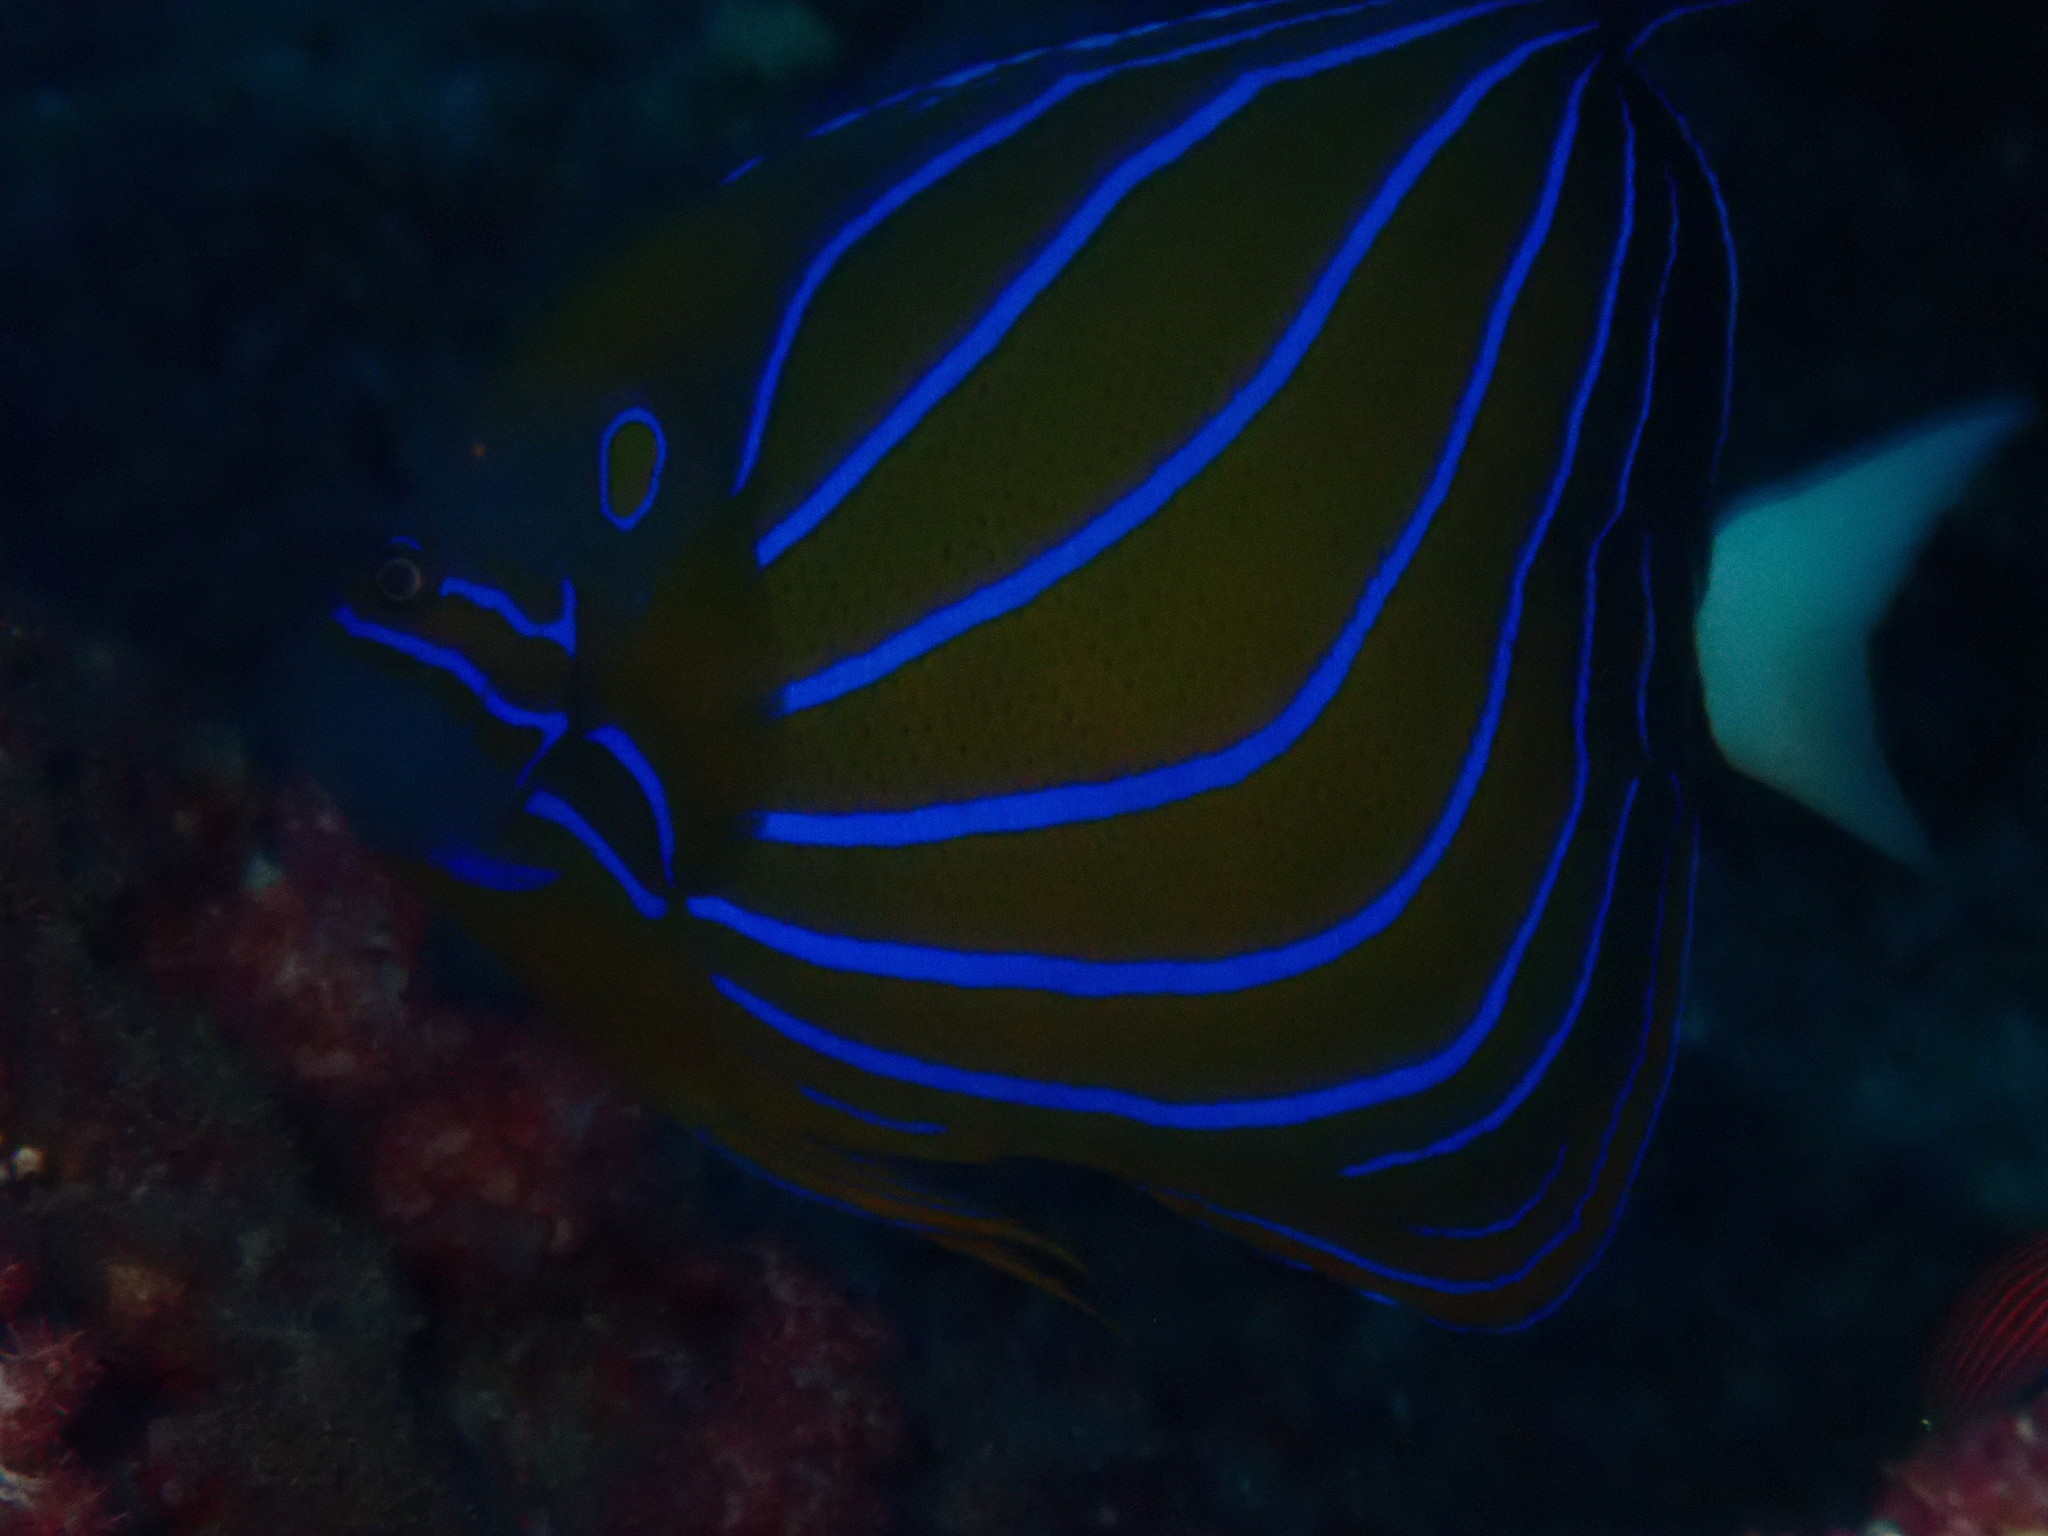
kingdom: Animalia
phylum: Chordata
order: Perciformes
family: Pomacanthidae
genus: Pomacanthus
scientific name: Pomacanthus annularis
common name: Bluering angelfish
